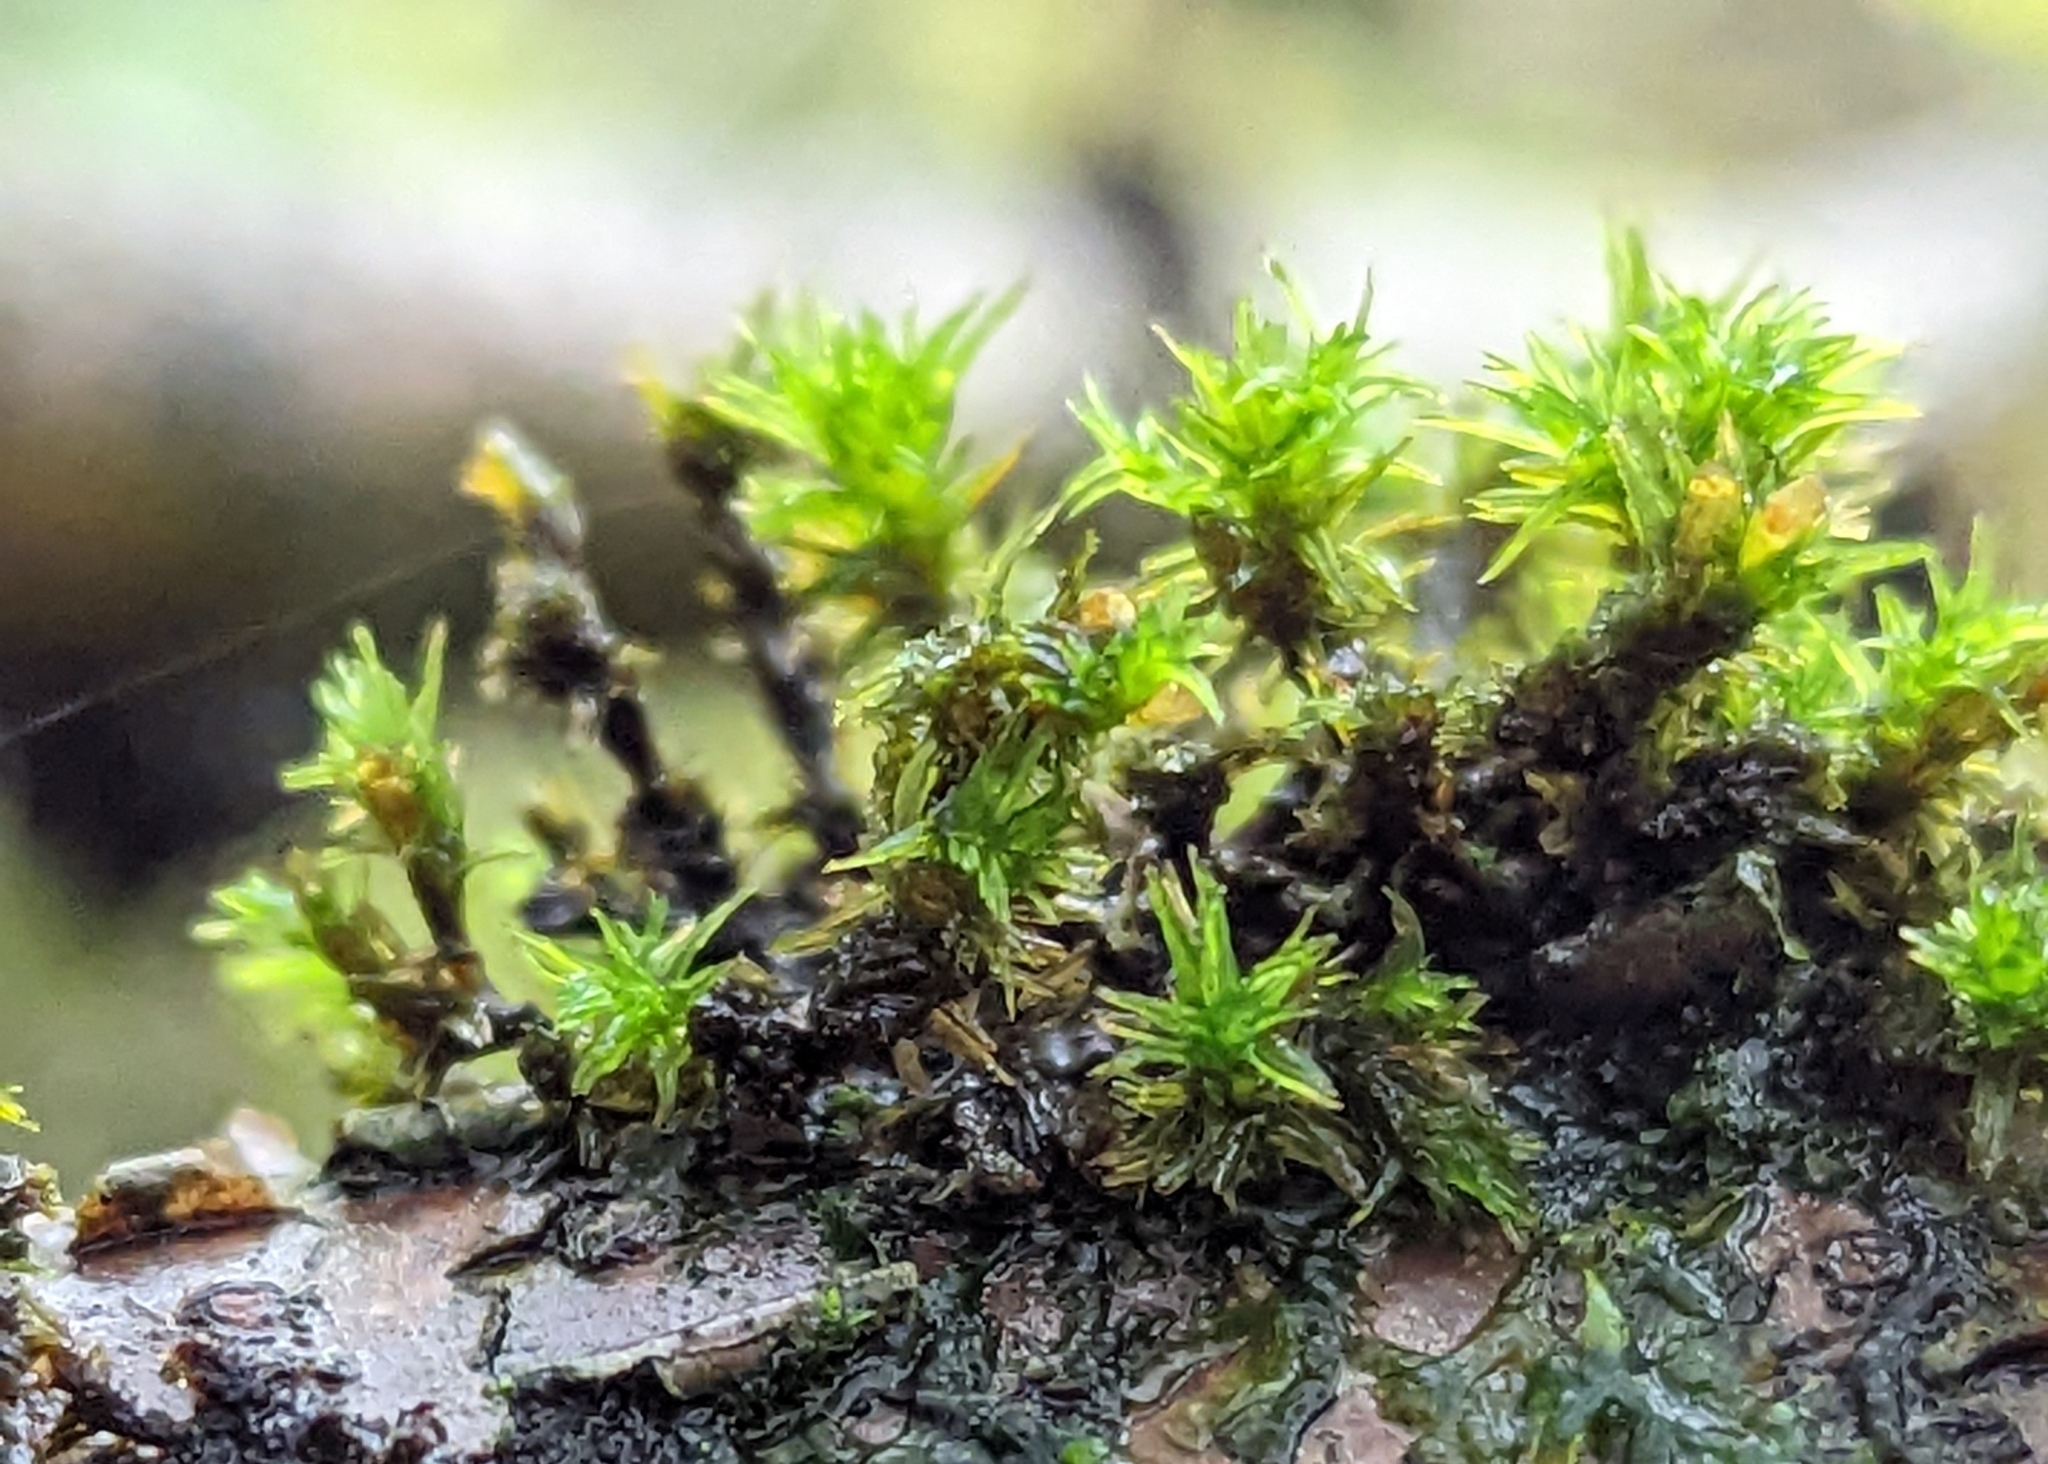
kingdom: Plantae
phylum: Bryophyta
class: Bryopsida
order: Orthotrichales
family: Orthotrichaceae
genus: Lewinskya
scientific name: Lewinskya affinis
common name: Wood bristle-moss
